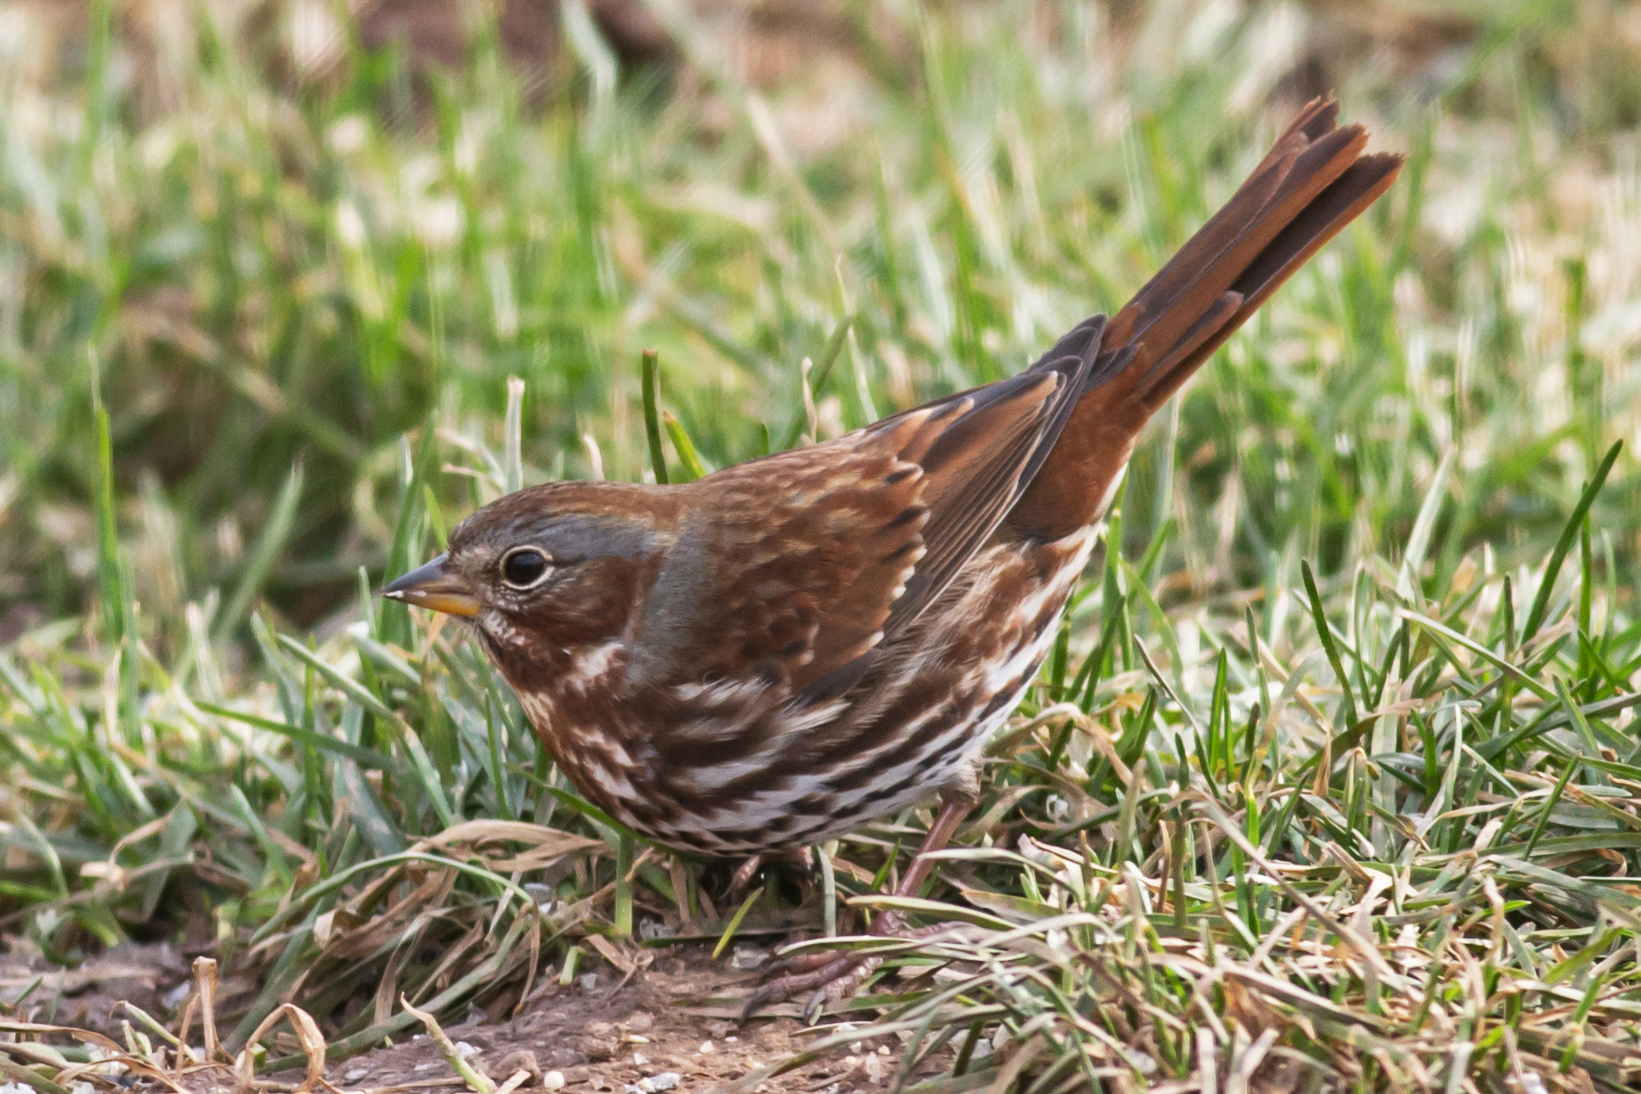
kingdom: Animalia
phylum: Chordata
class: Aves
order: Passeriformes
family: Passerellidae
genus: Passerella
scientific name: Passerella iliaca
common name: Fox sparrow
